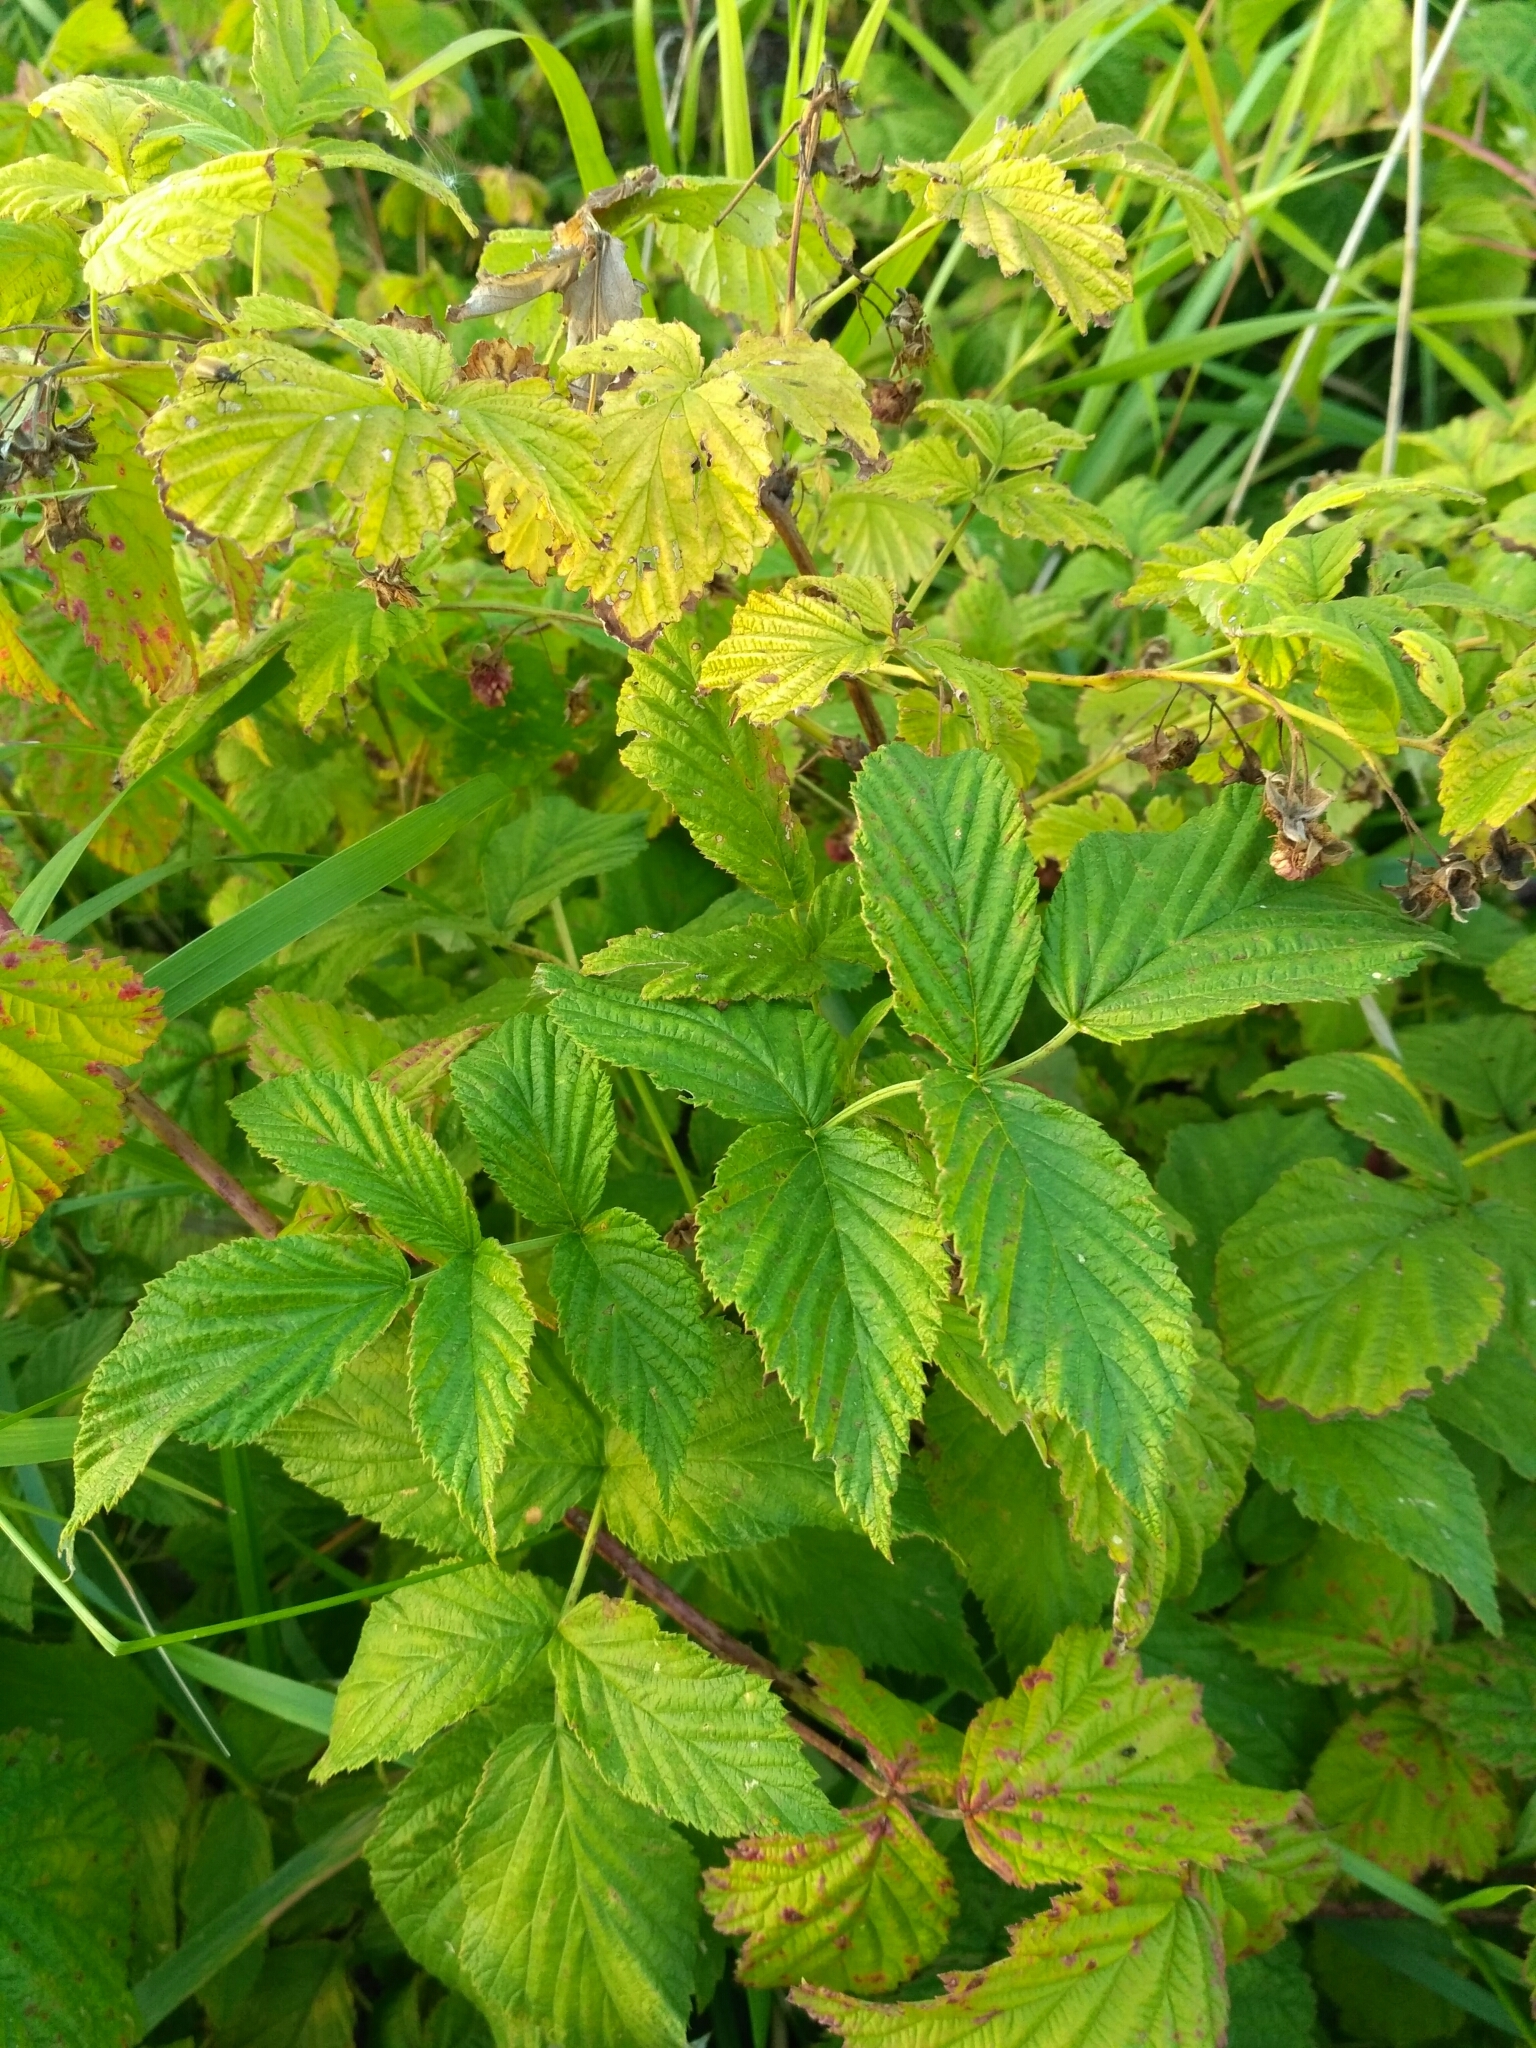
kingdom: Plantae
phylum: Tracheophyta
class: Magnoliopsida
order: Rosales
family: Rosaceae
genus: Rubus
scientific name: Rubus idaeus
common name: Raspberry
